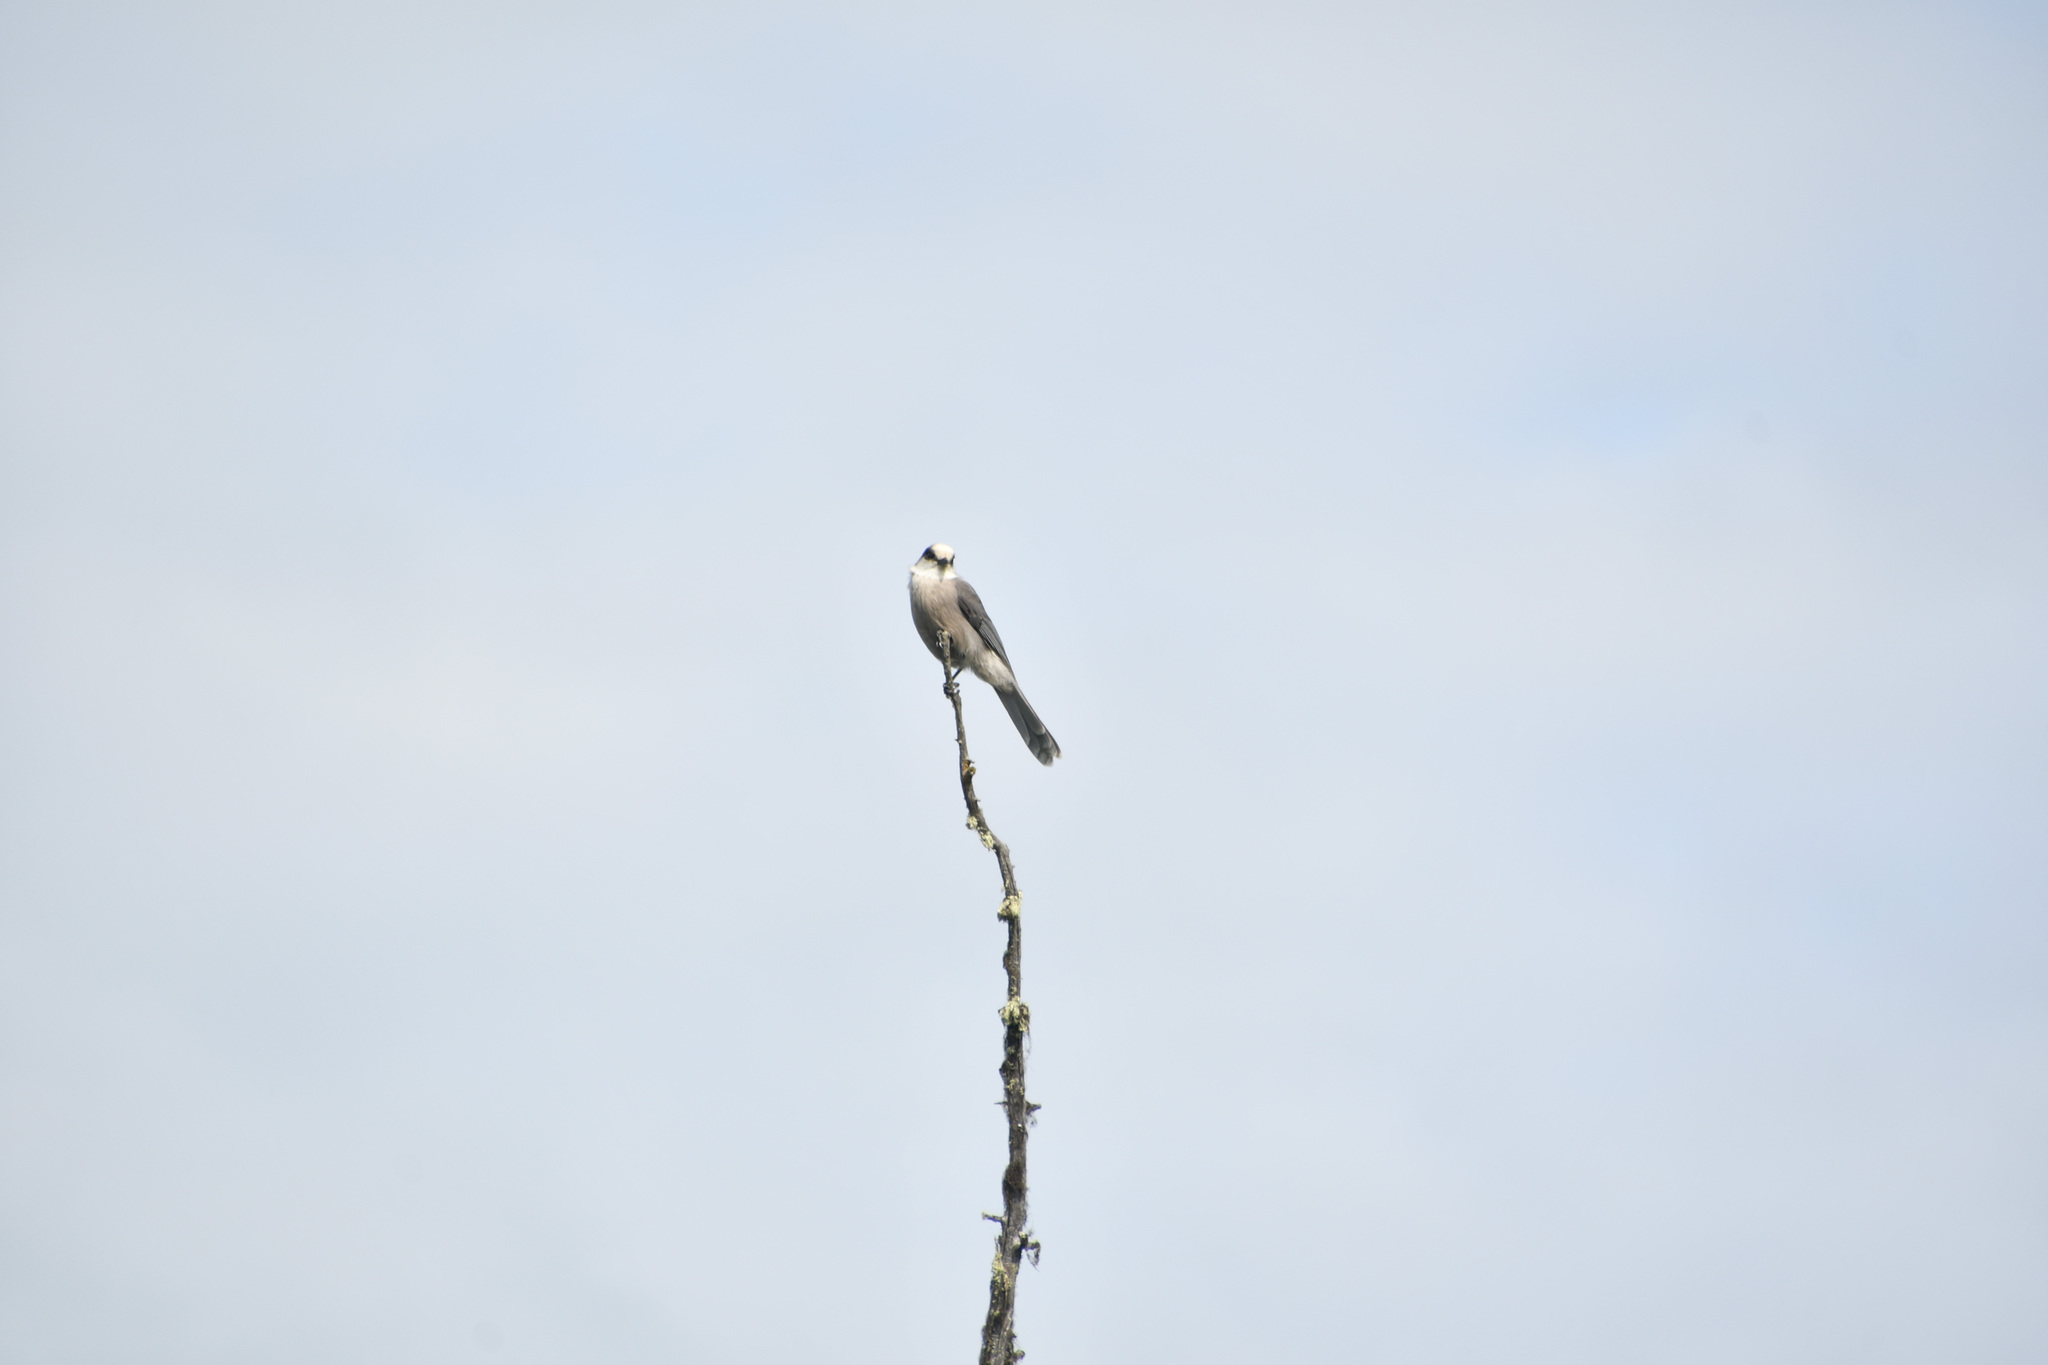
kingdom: Animalia
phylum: Chordata
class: Aves
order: Passeriformes
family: Corvidae
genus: Perisoreus
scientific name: Perisoreus canadensis
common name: Gray jay
